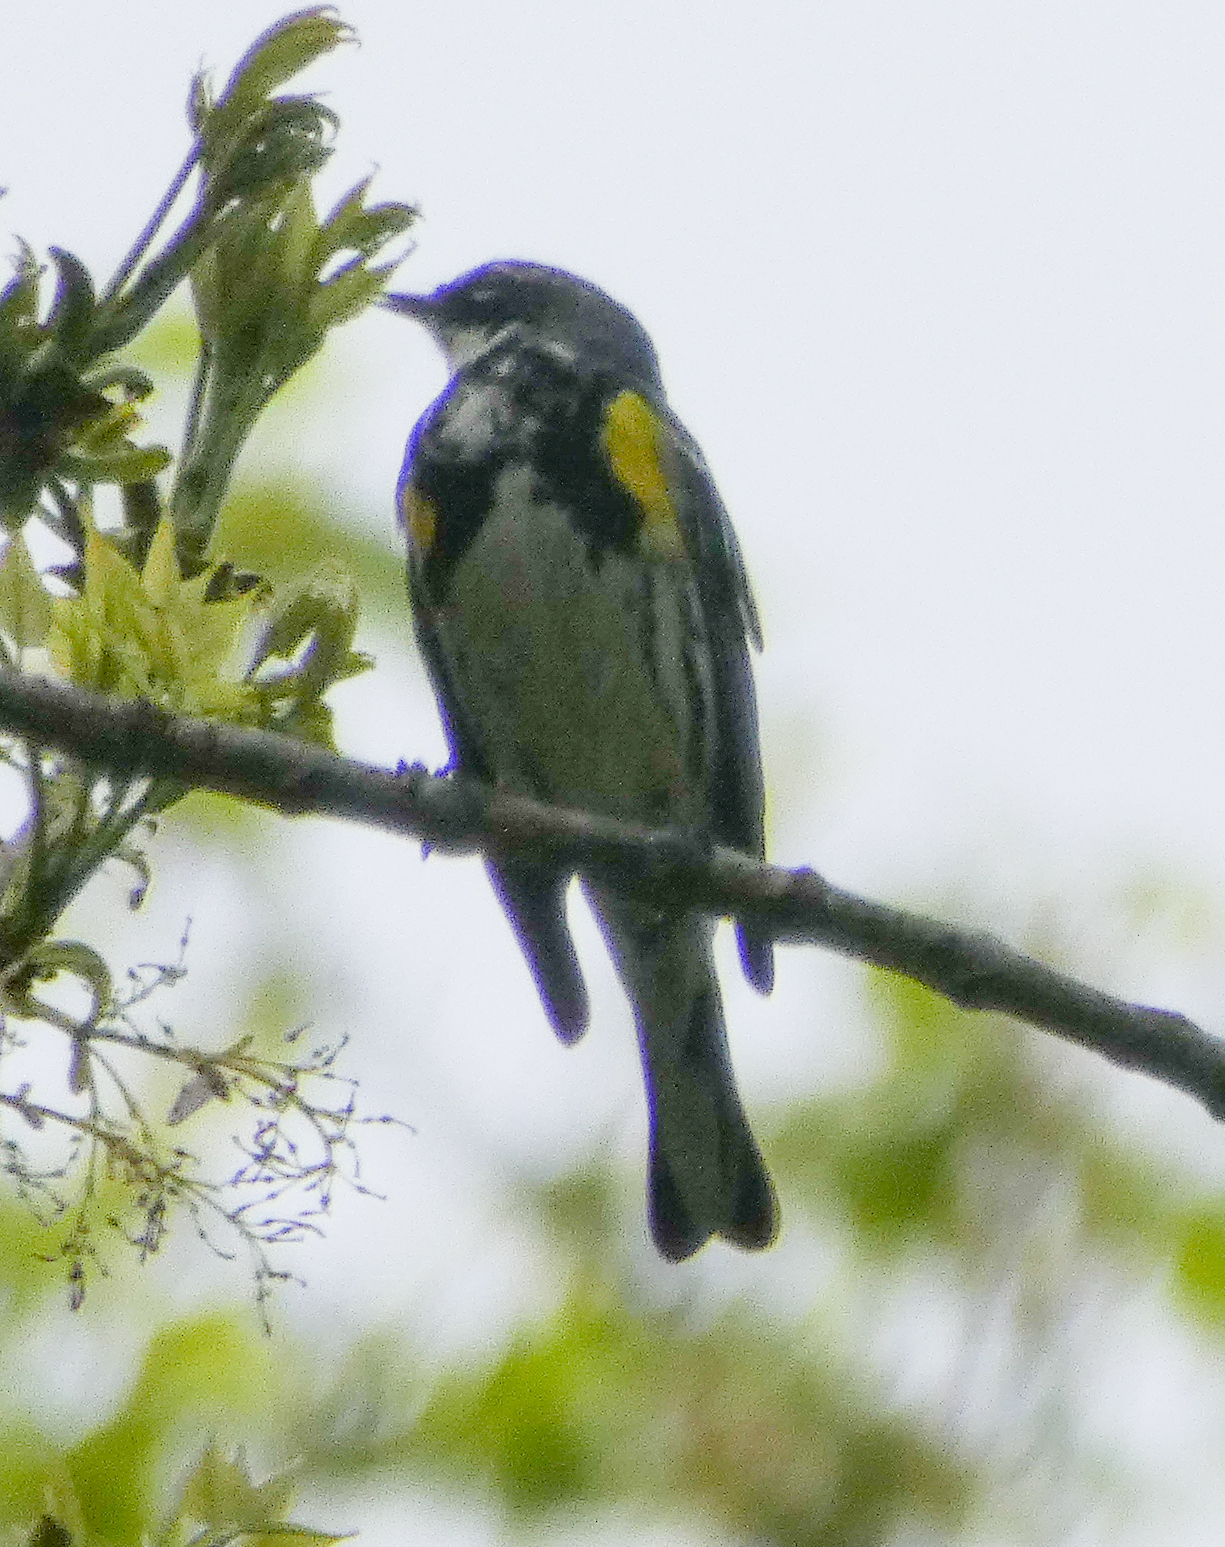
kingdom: Animalia
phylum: Chordata
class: Aves
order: Passeriformes
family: Parulidae
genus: Setophaga
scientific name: Setophaga coronata
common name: Myrtle warbler
